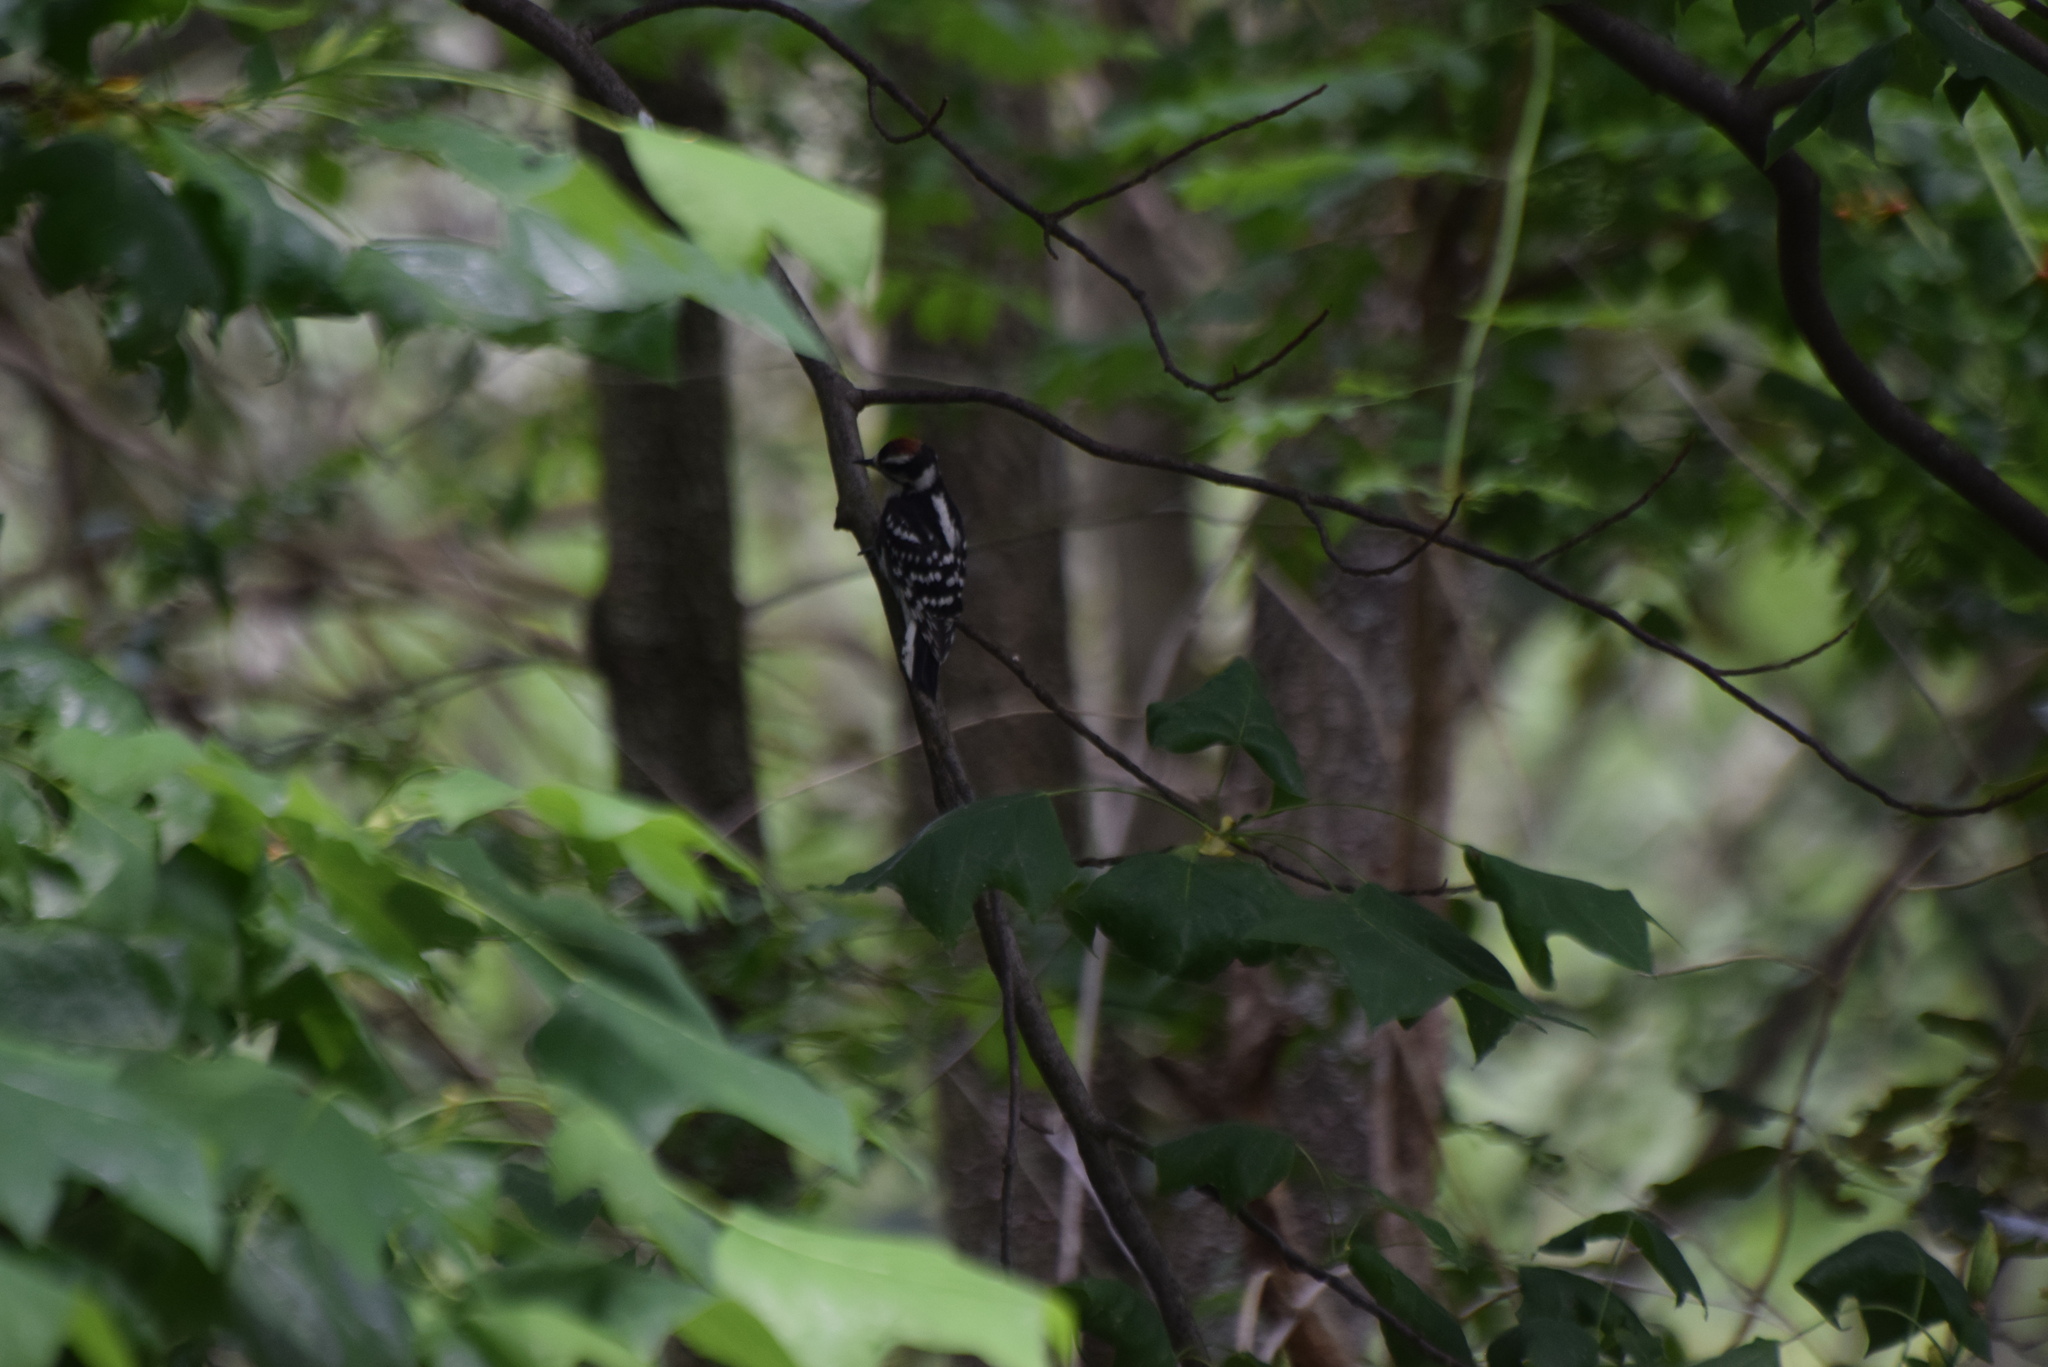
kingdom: Animalia
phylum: Chordata
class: Aves
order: Piciformes
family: Picidae
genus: Dryobates
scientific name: Dryobates pubescens
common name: Downy woodpecker
